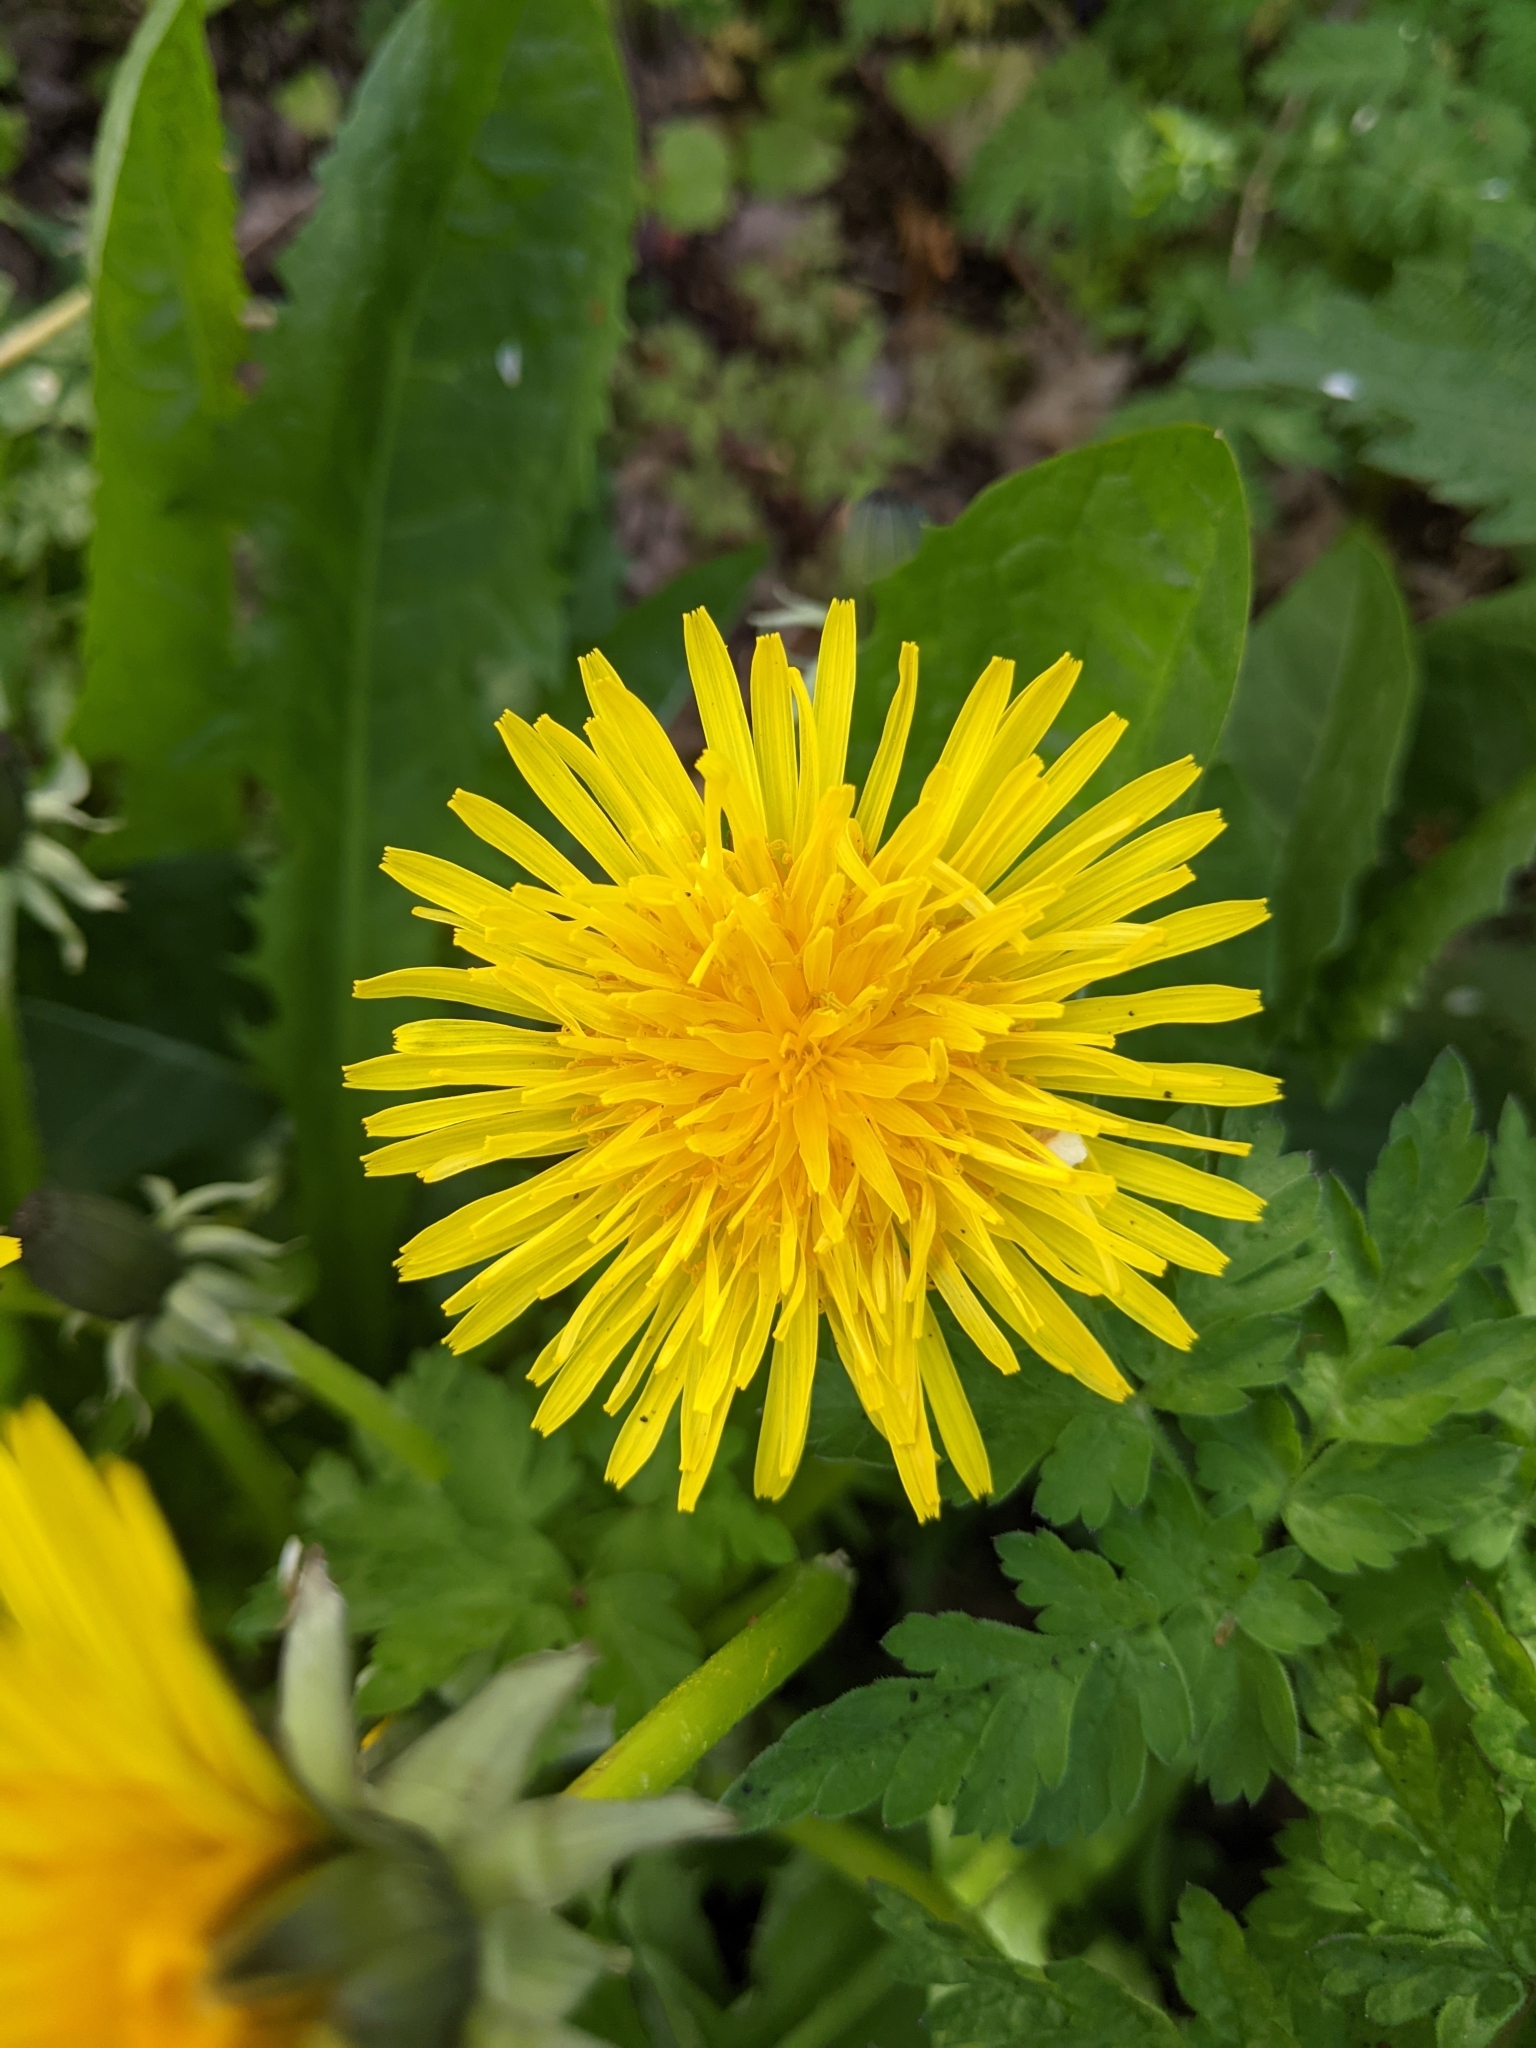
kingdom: Plantae
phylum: Tracheophyta
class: Magnoliopsida
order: Asterales
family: Asteraceae
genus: Taraxacum
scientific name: Taraxacum officinale
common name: Common dandelion
